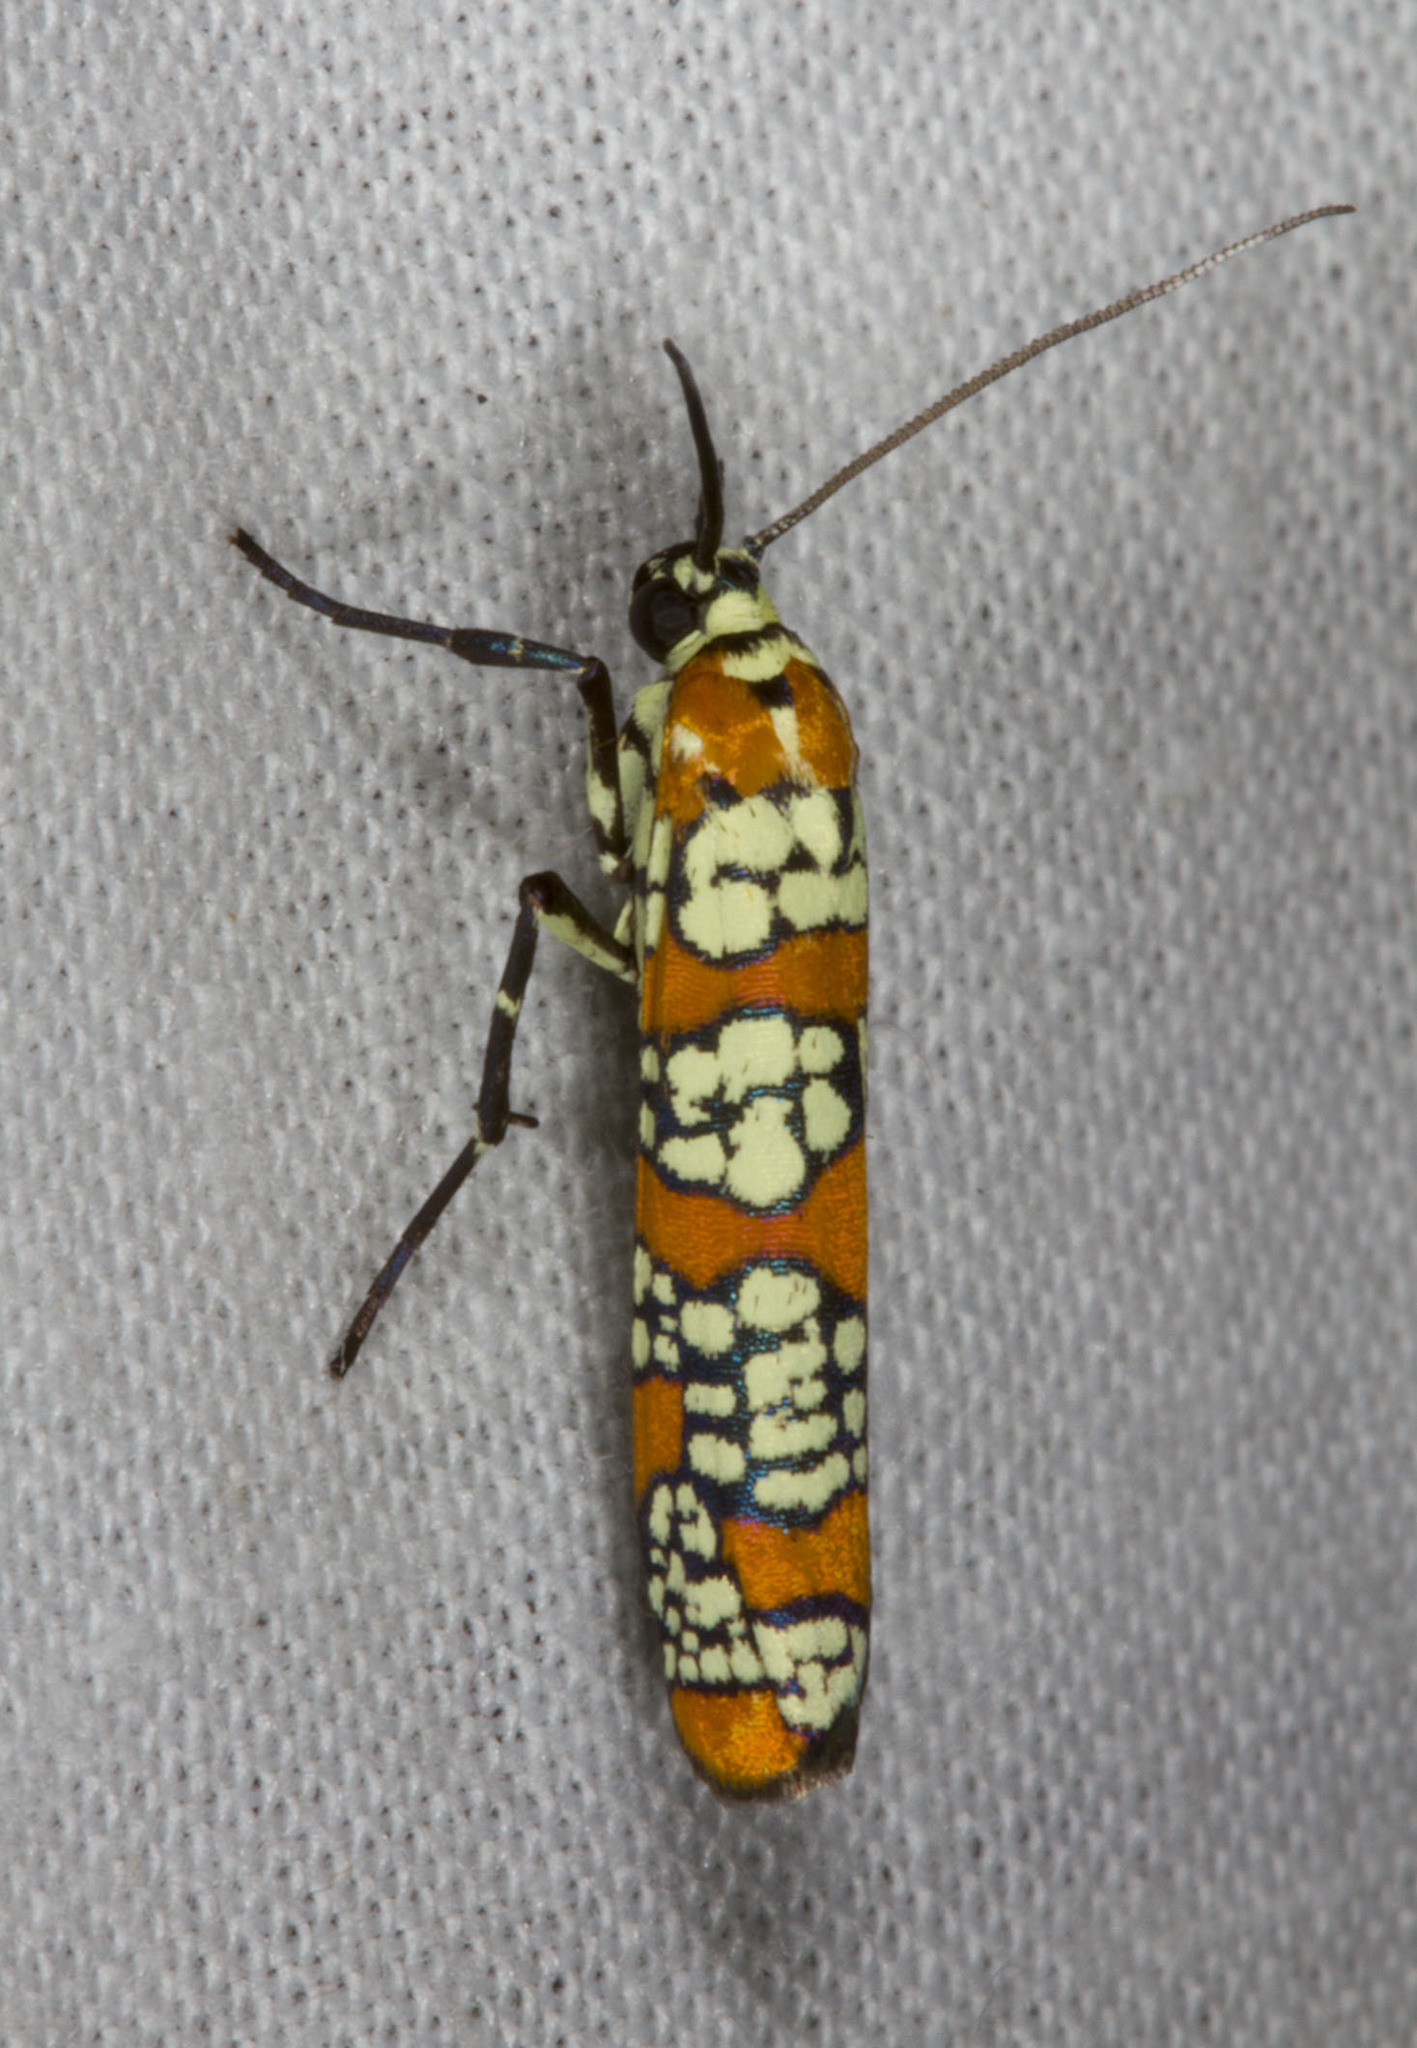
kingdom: Animalia
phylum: Arthropoda
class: Insecta
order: Lepidoptera
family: Attevidae
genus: Atteva
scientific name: Atteva punctella
